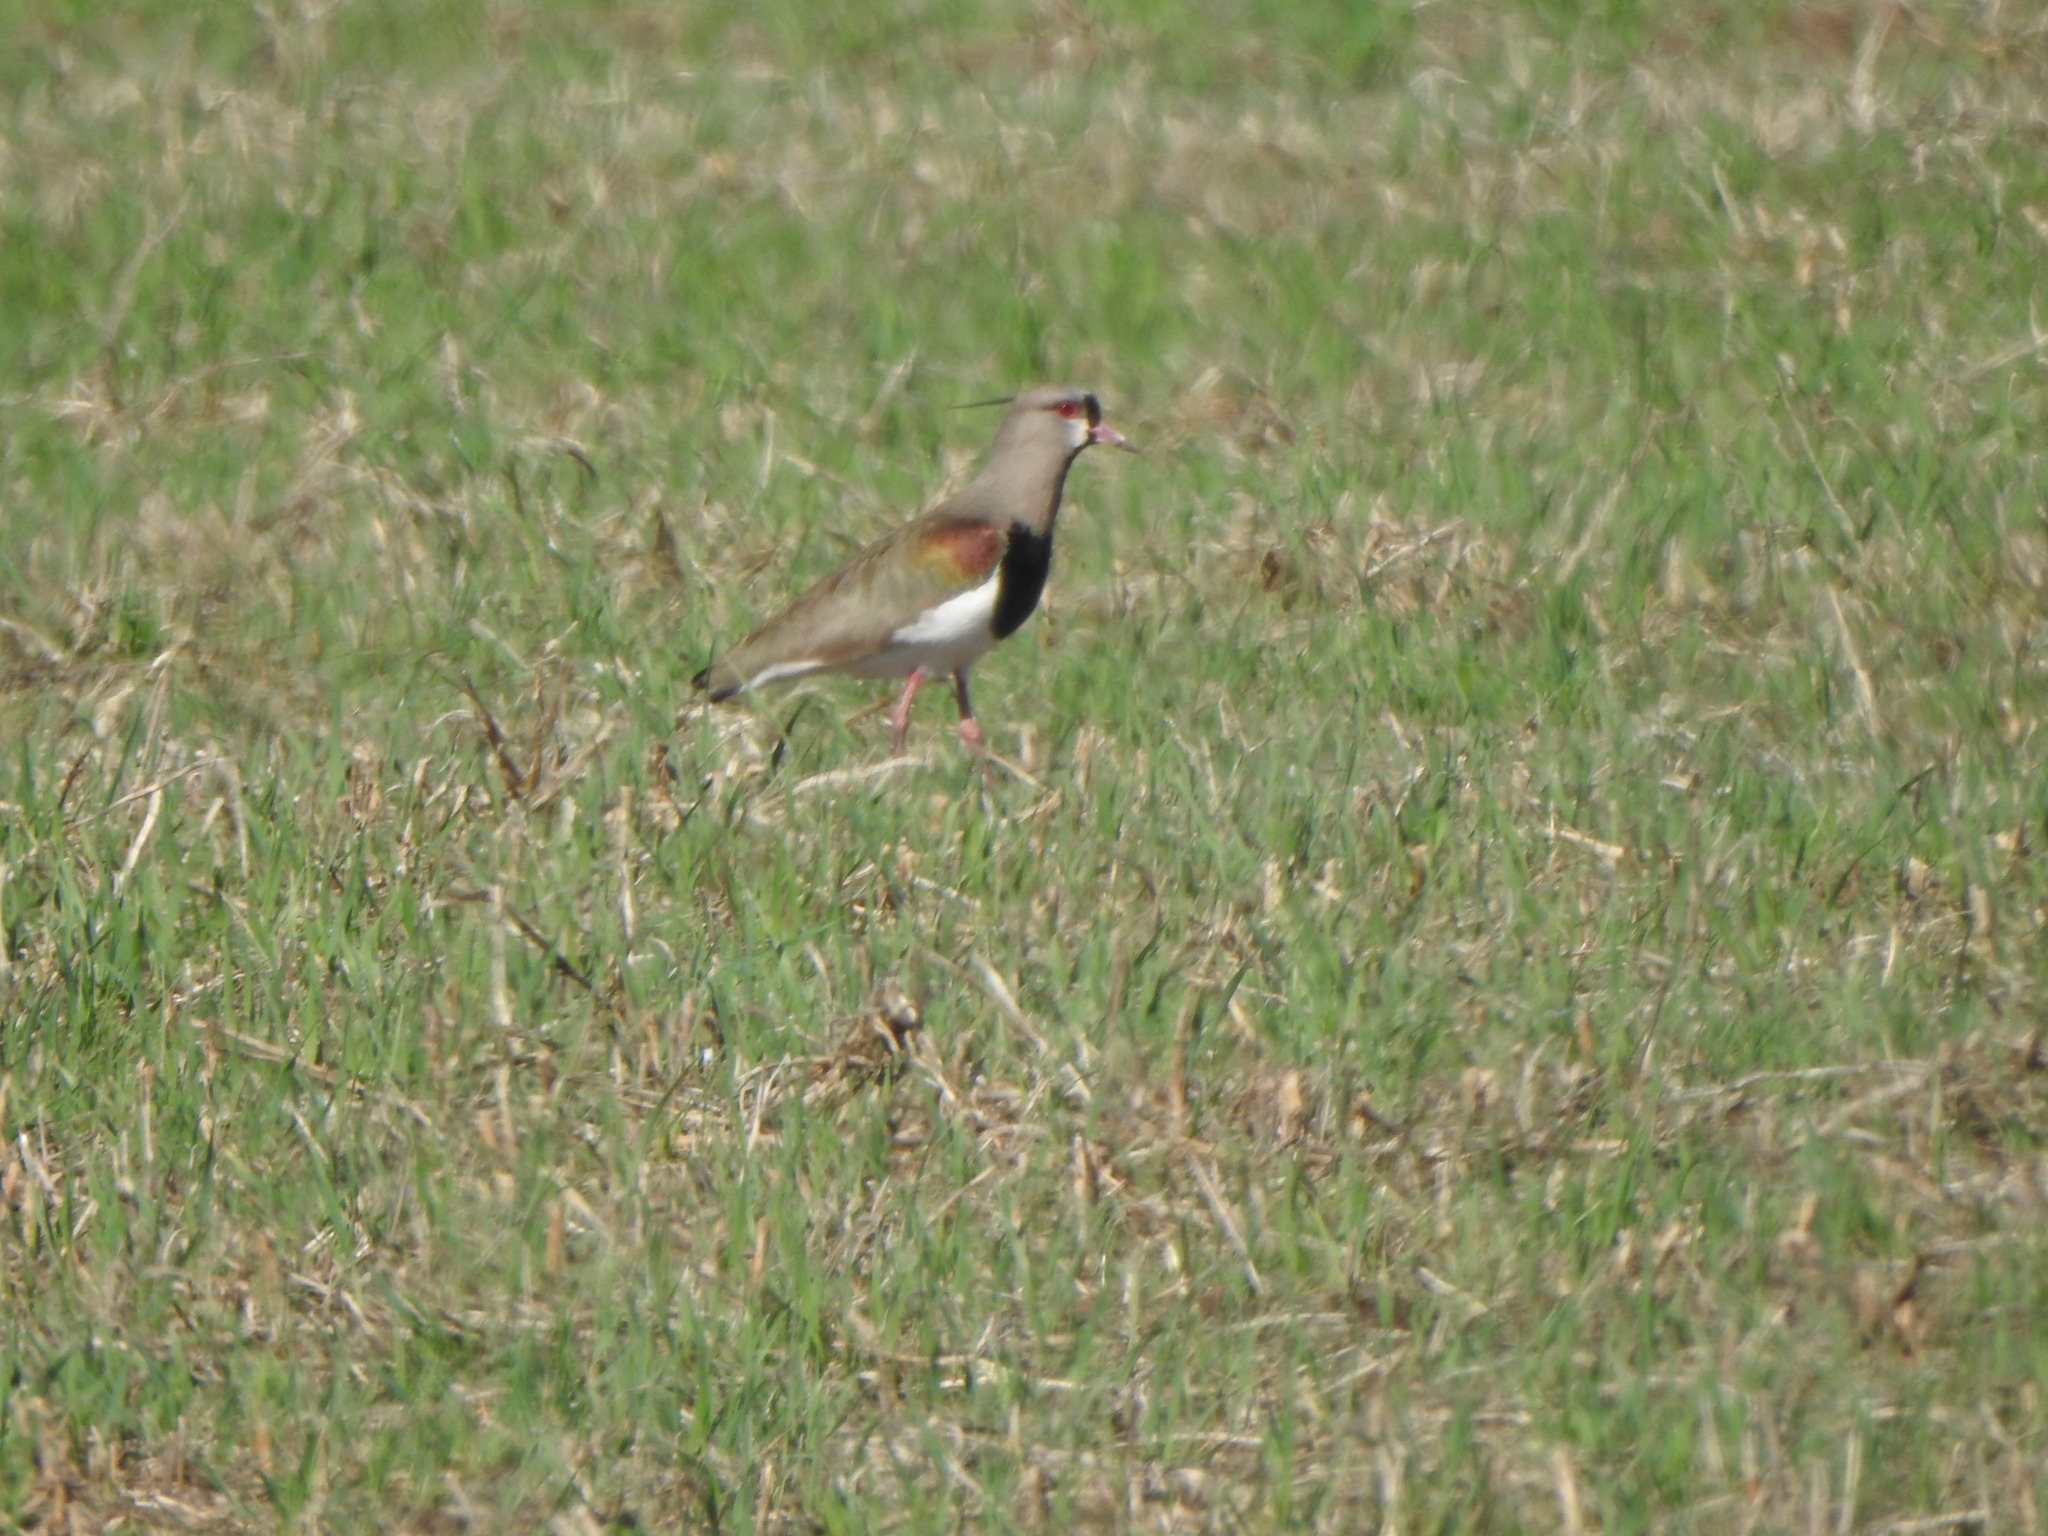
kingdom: Animalia
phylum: Chordata
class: Aves
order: Charadriiformes
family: Charadriidae
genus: Vanellus
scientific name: Vanellus chilensis
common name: Southern lapwing
